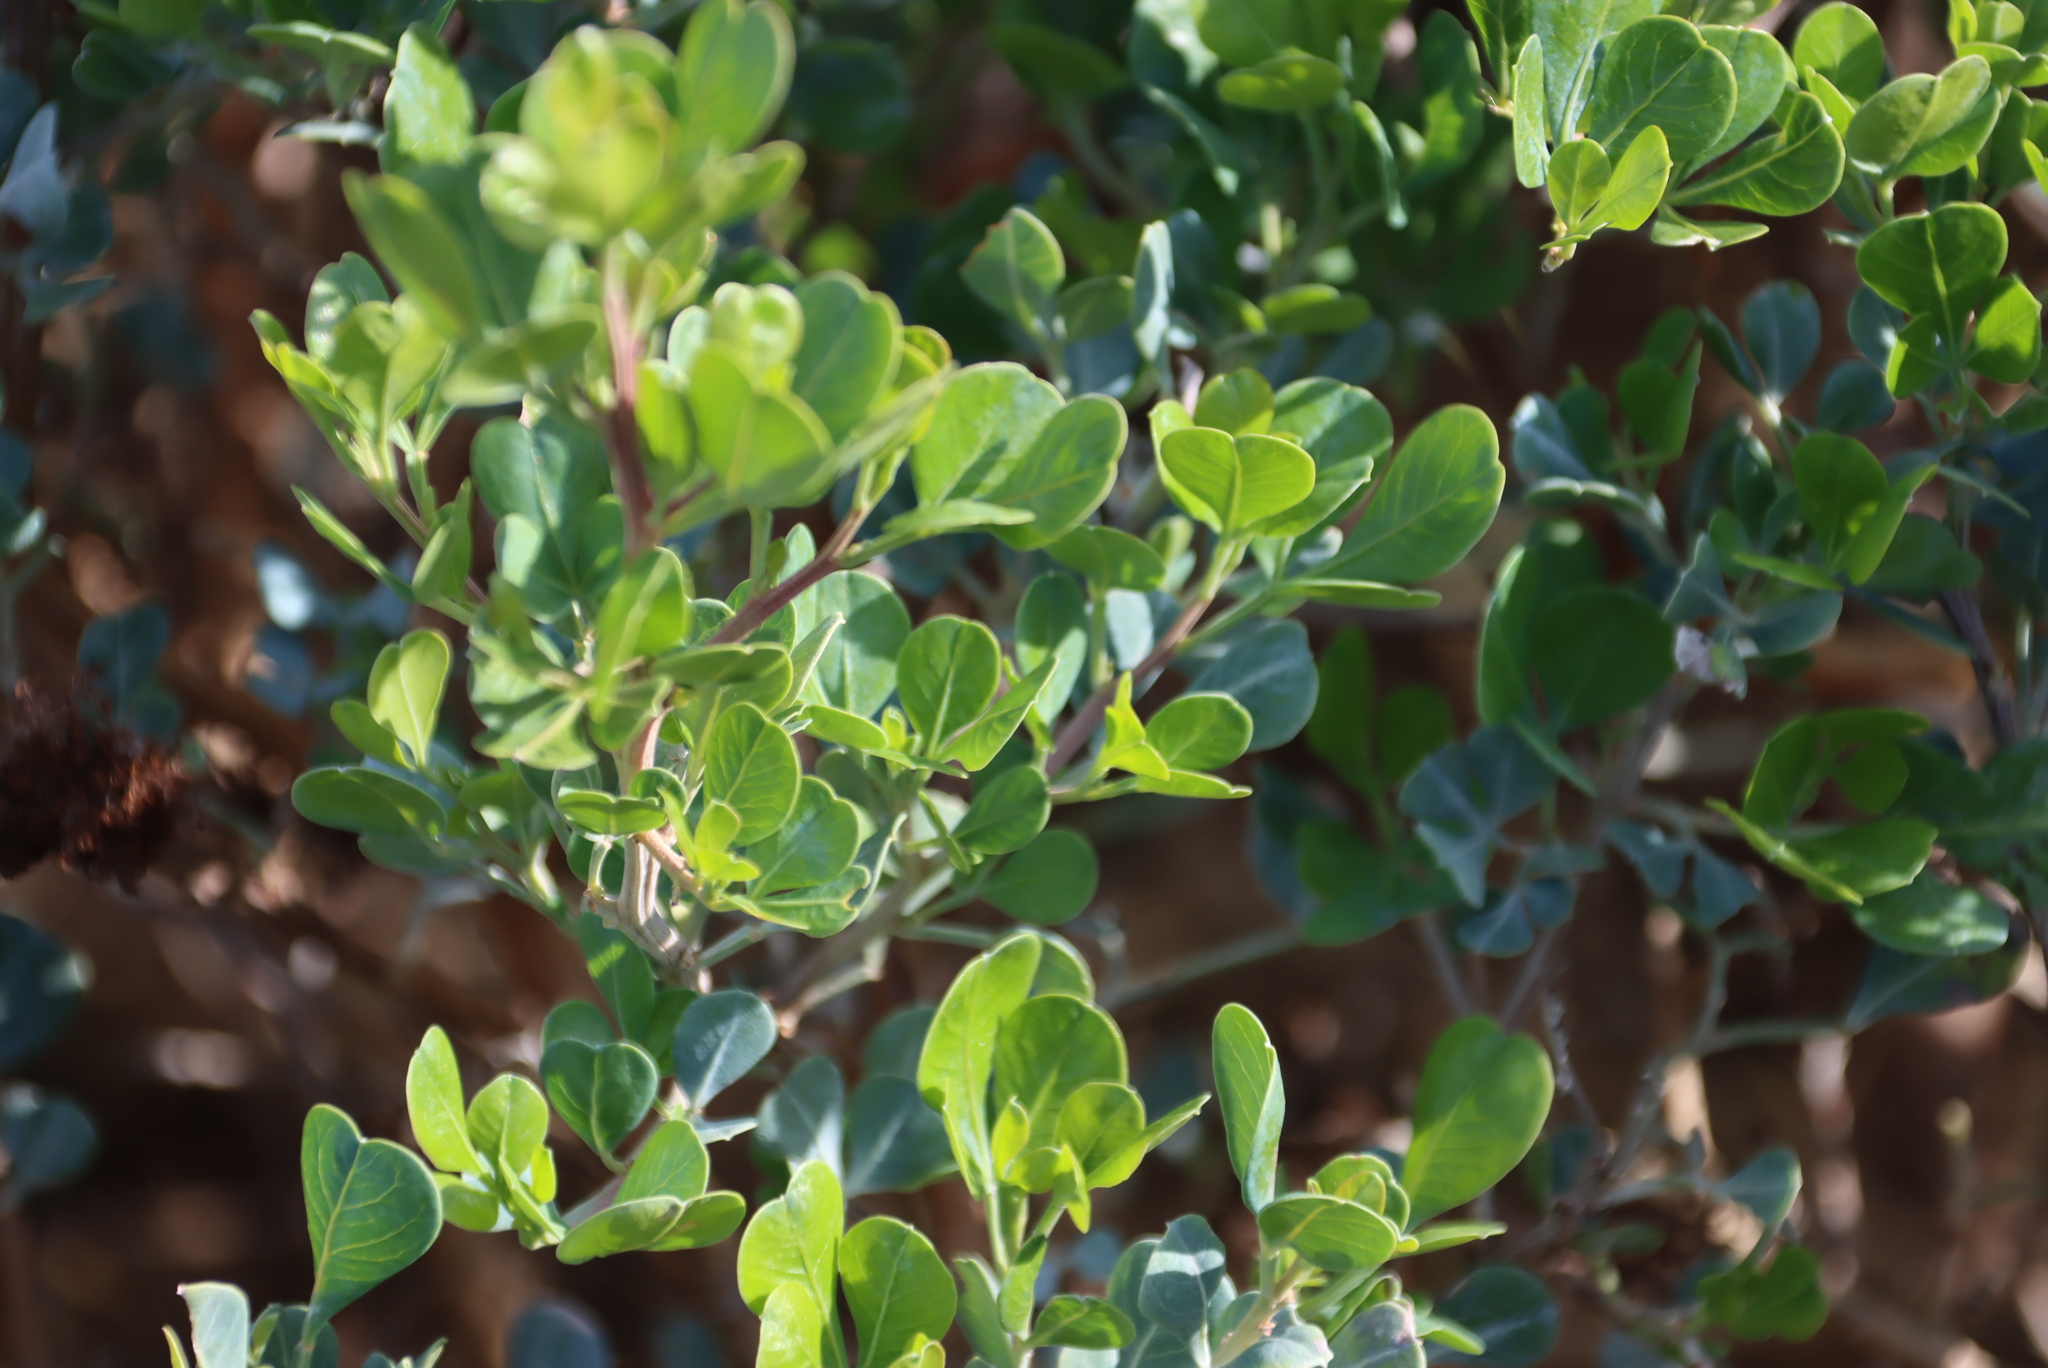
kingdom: Plantae
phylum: Tracheophyta
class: Magnoliopsida
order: Sapindales
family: Anacardiaceae
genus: Searsia
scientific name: Searsia glauca
